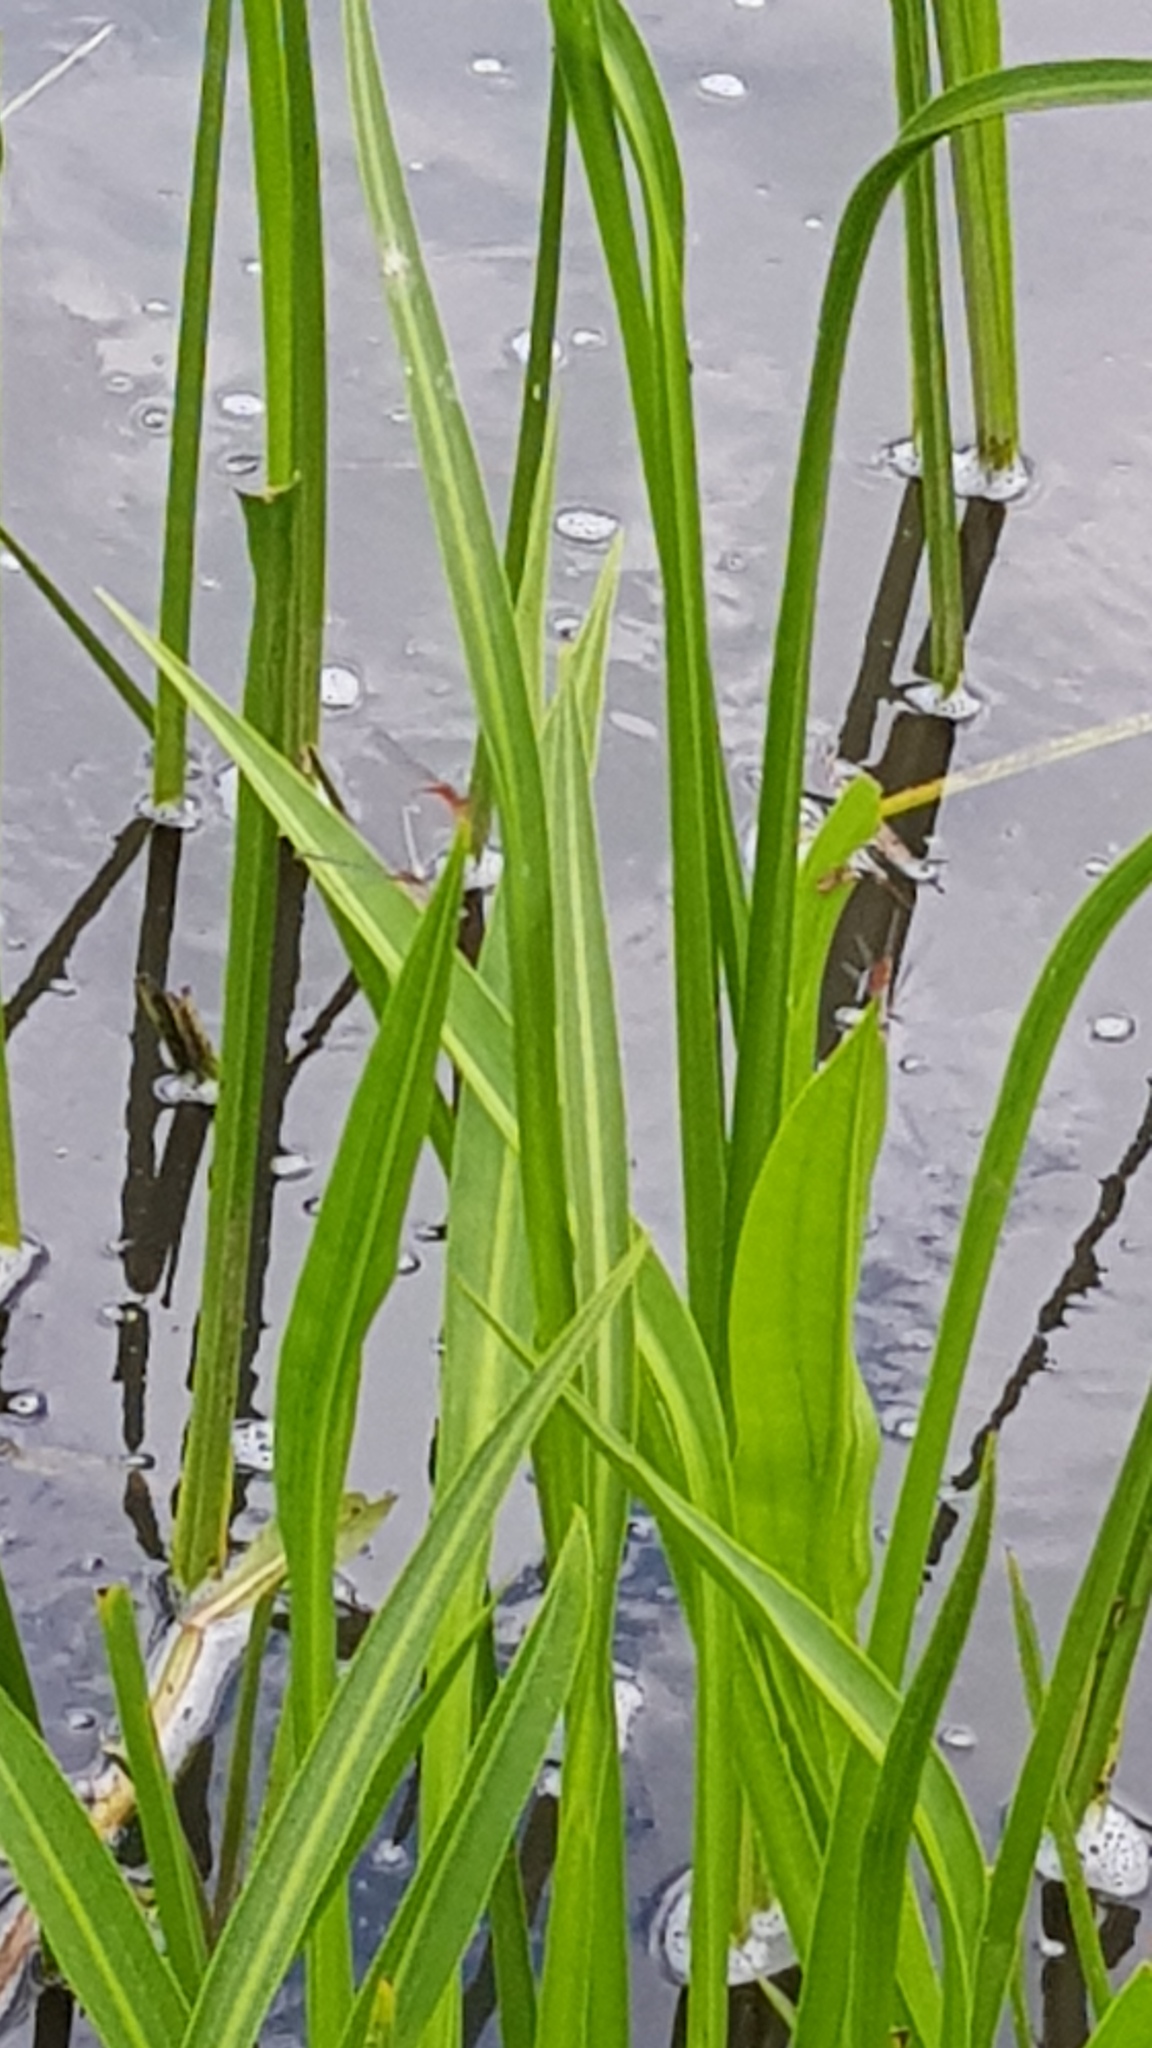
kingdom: Animalia
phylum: Arthropoda
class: Insecta
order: Odonata
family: Coenagrionidae
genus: Xanthagrion
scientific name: Xanthagrion erythroneurum
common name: Red and blue damsel
